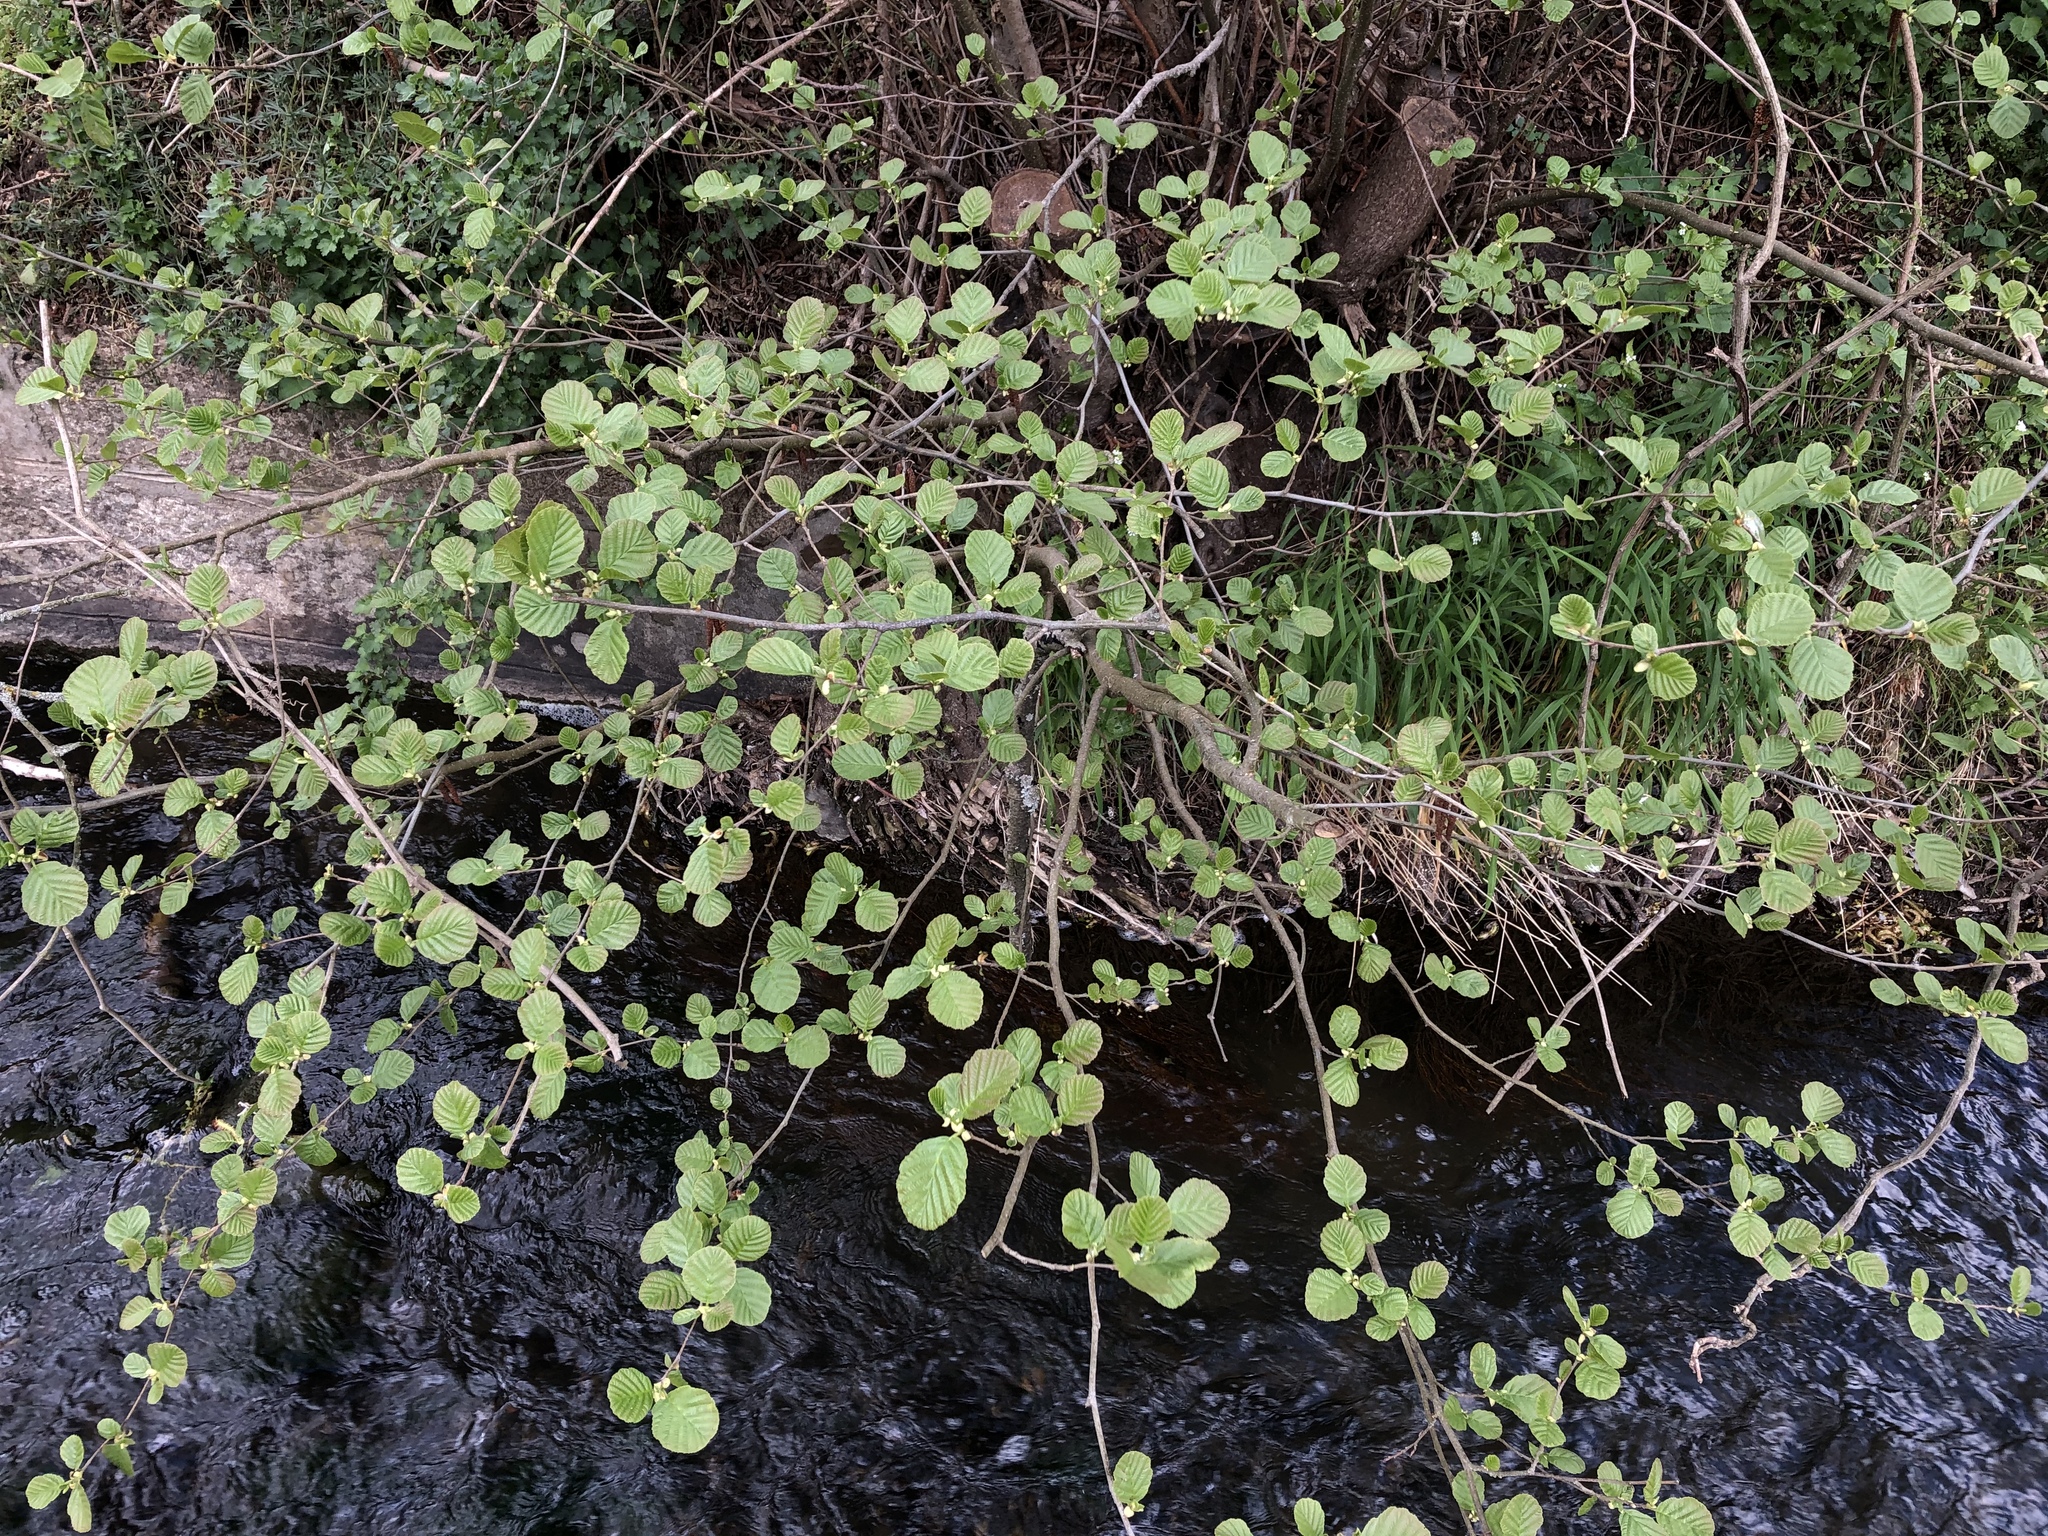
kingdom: Plantae
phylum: Tracheophyta
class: Magnoliopsida
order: Fagales
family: Betulaceae
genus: Alnus
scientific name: Alnus glutinosa
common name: Black alder
